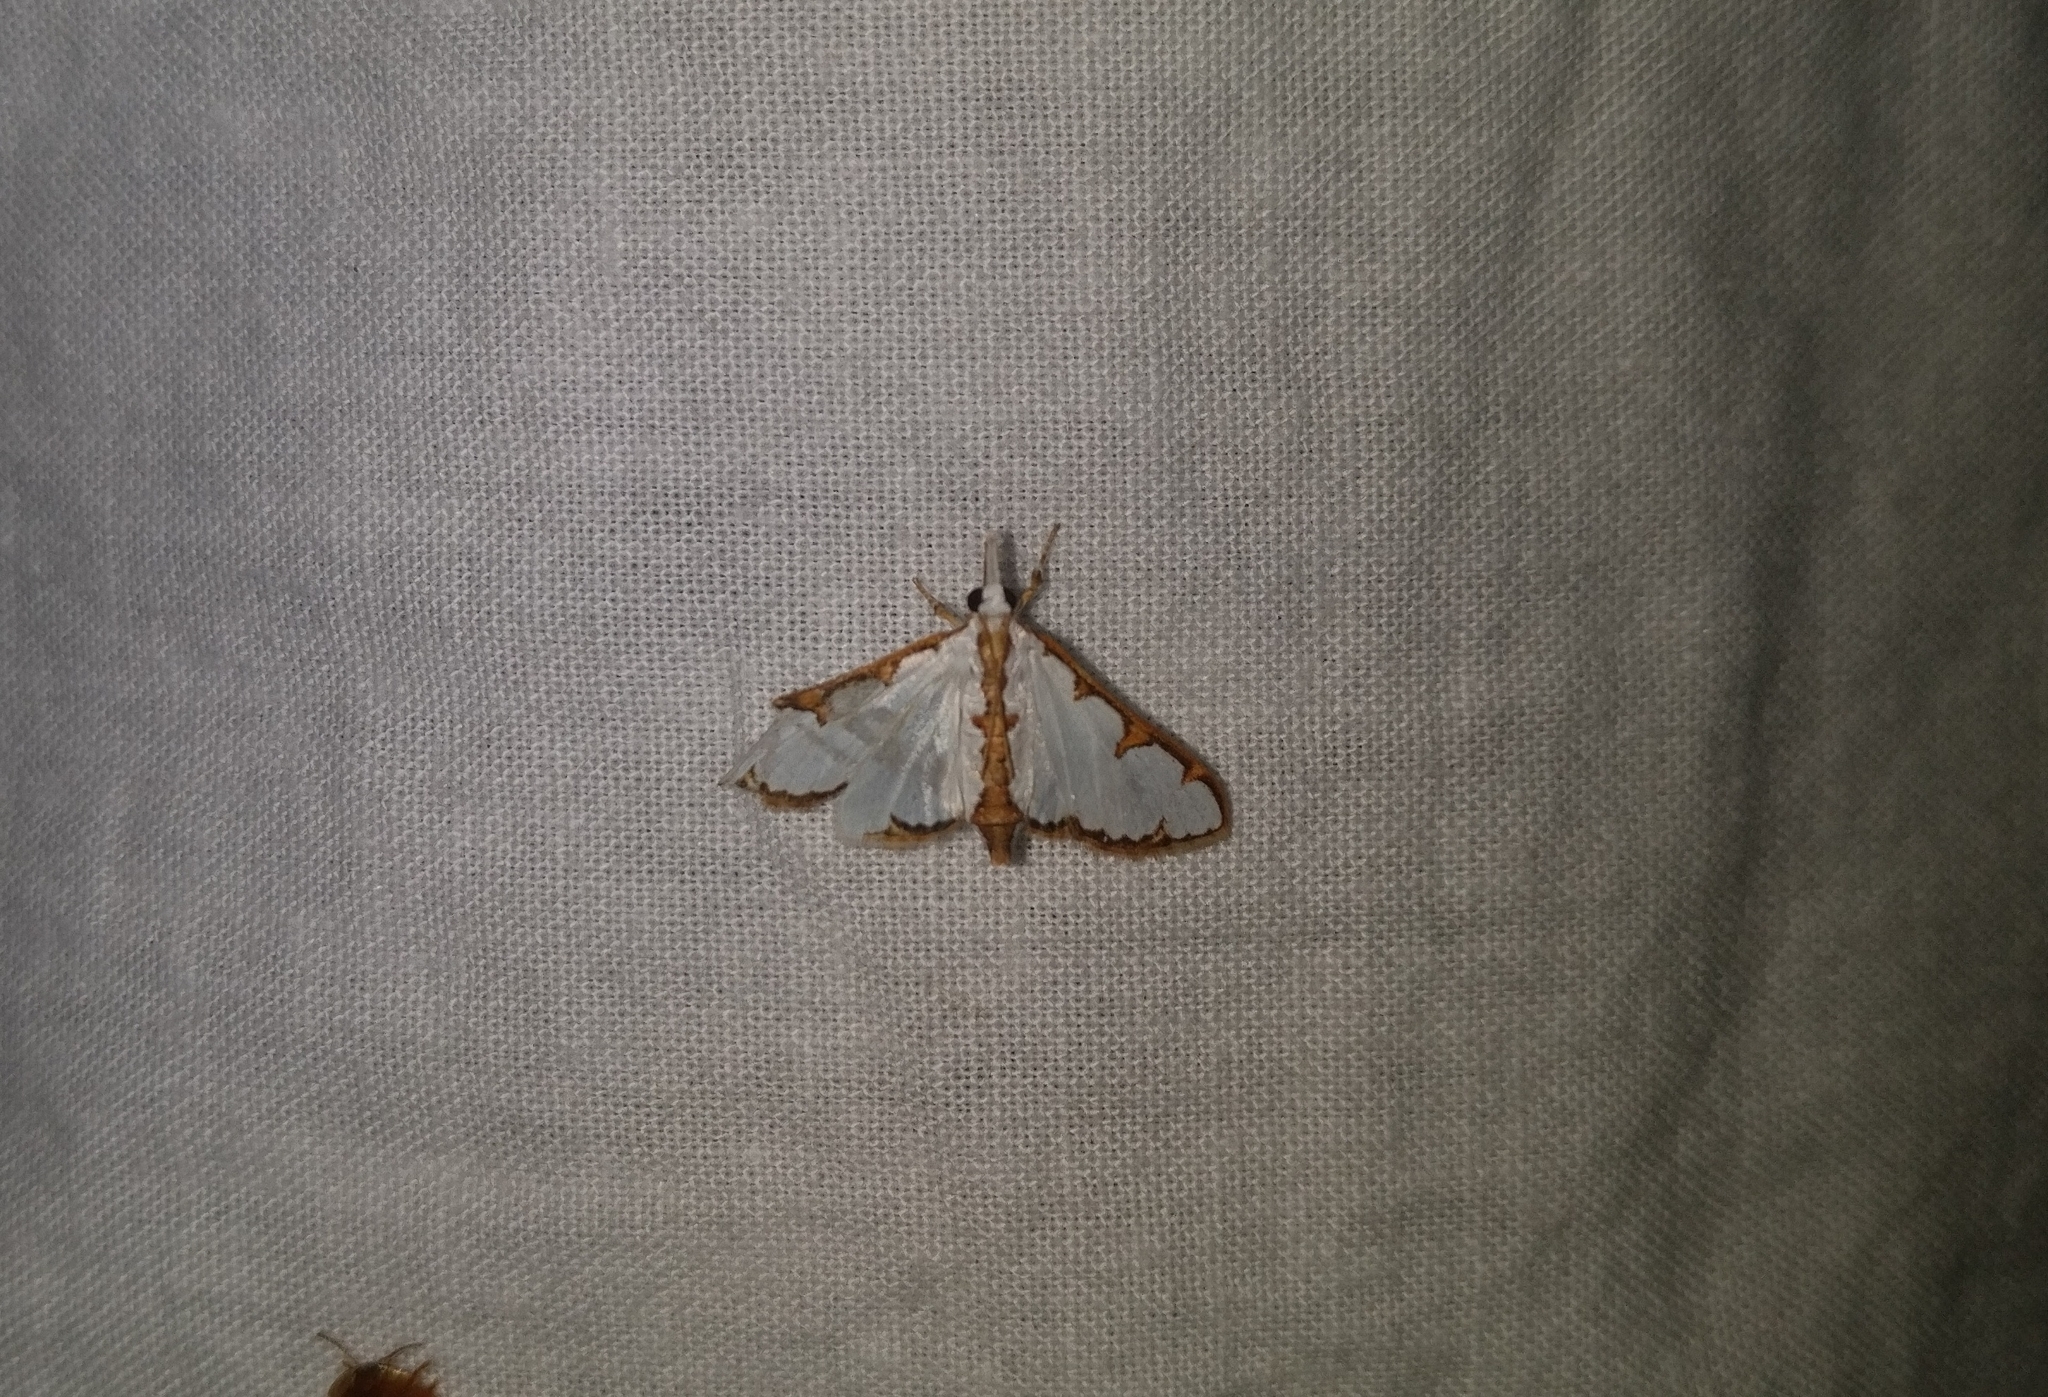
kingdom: Animalia
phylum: Arthropoda
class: Insecta
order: Lepidoptera
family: Crambidae
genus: Cirrhochrista
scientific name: Cirrhochrista brizoalis
